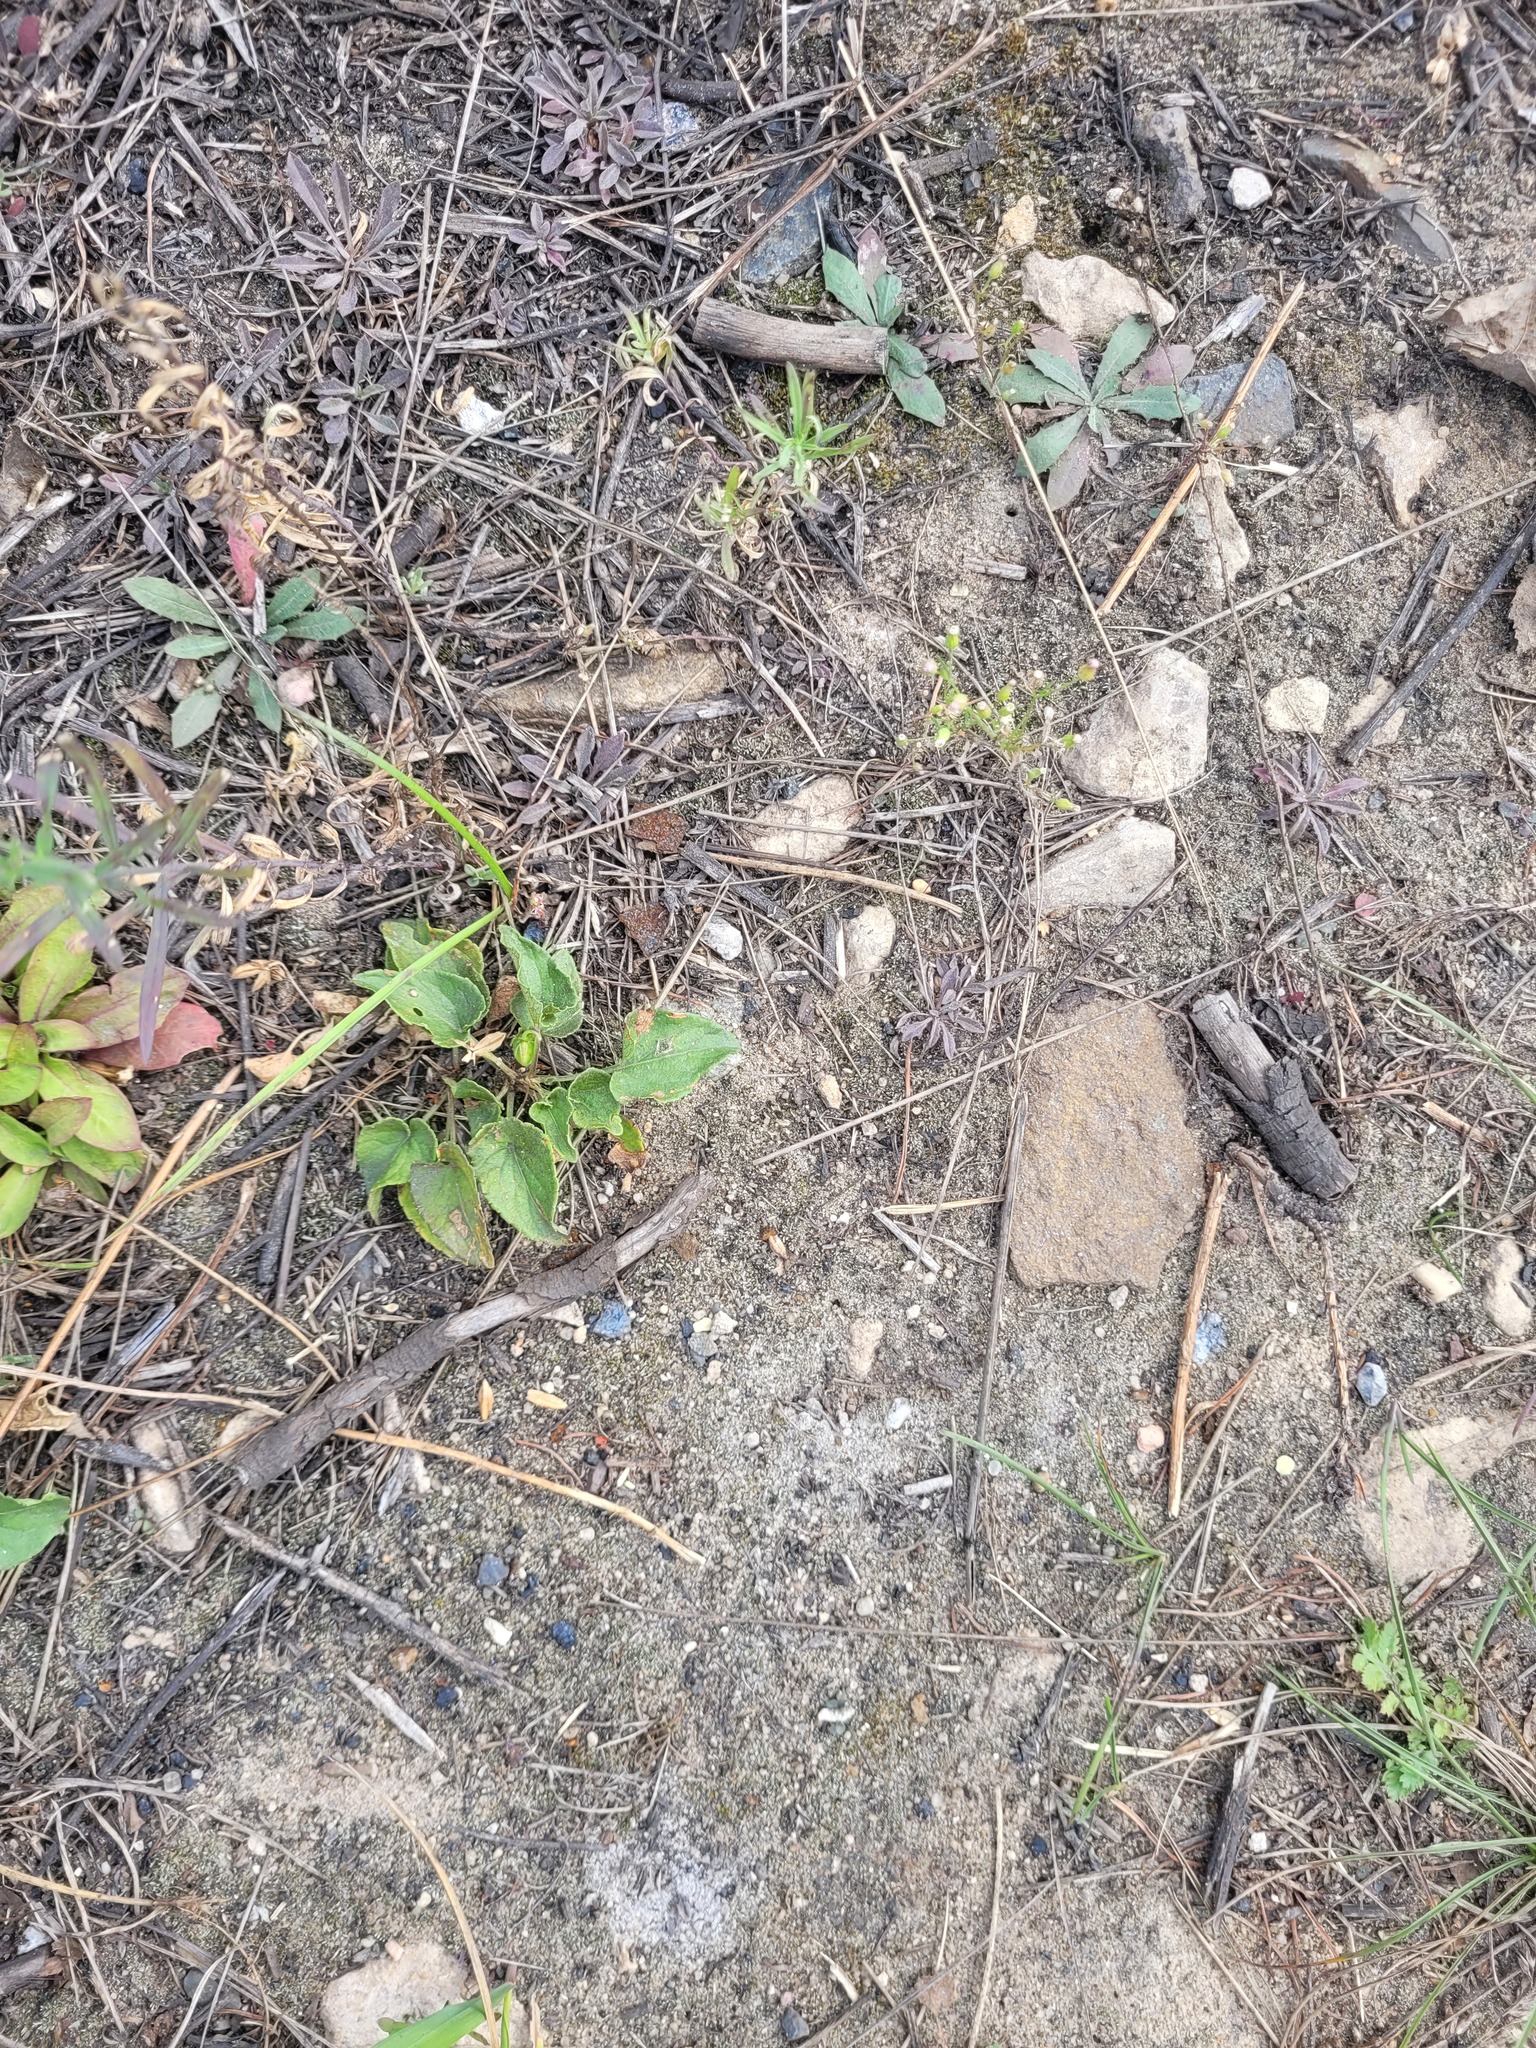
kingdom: Plantae
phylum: Tracheophyta
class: Magnoliopsida
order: Malpighiales
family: Violaceae
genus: Viola
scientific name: Viola canina
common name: Heath dog-violet
